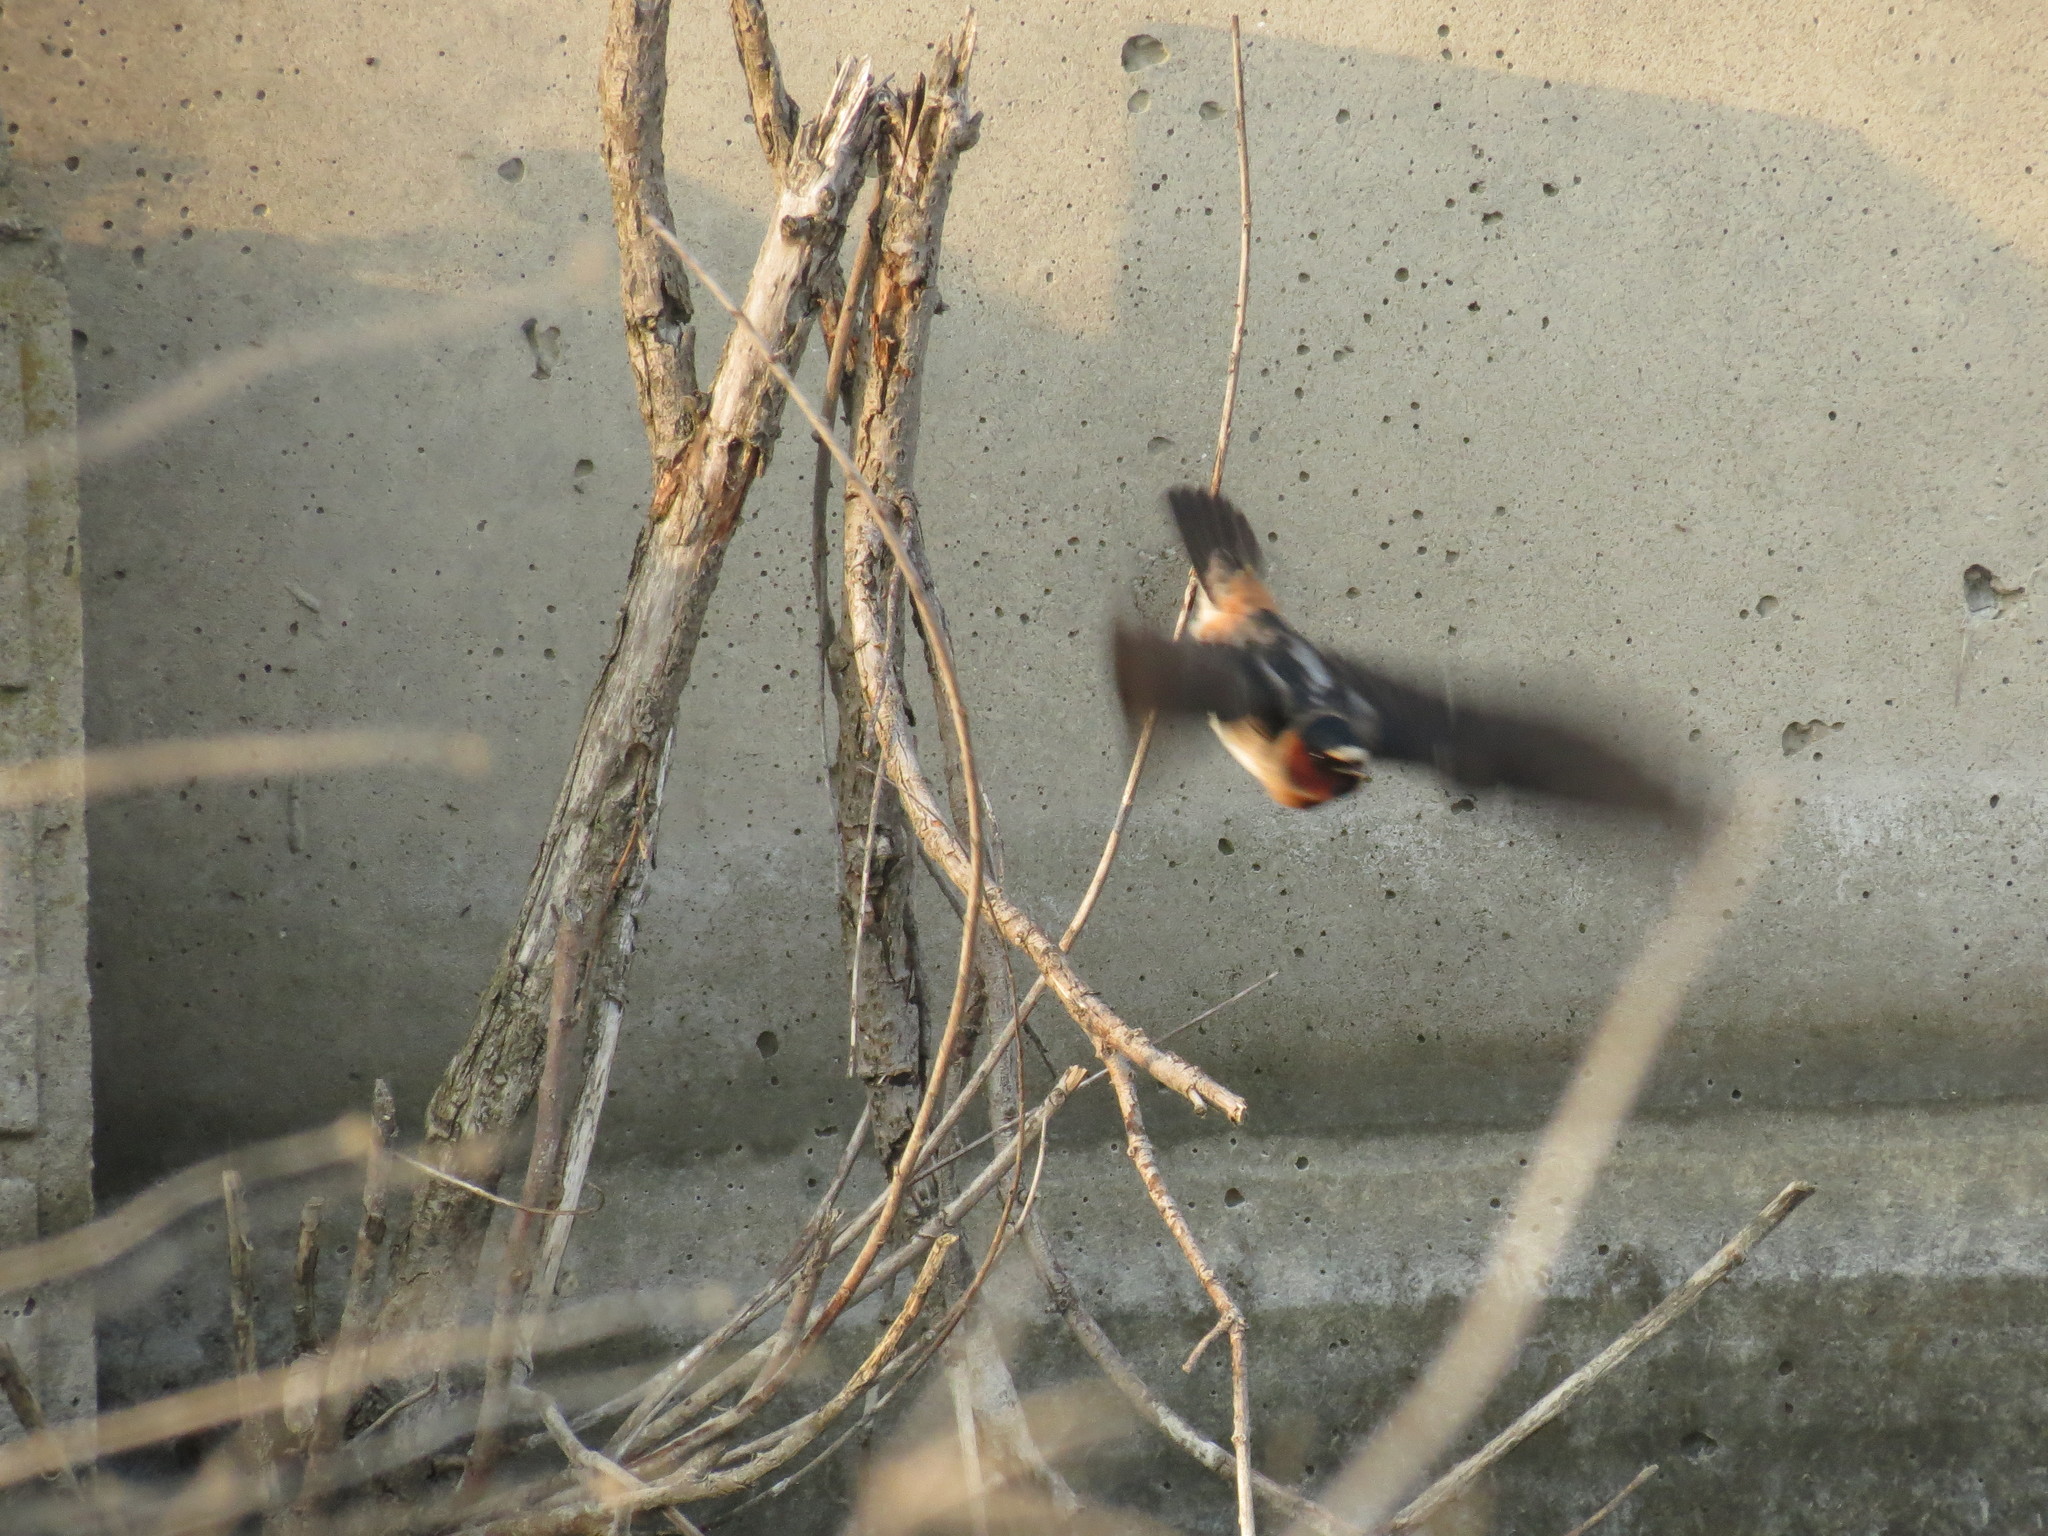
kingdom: Animalia
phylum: Chordata
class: Aves
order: Passeriformes
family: Hirundinidae
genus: Petrochelidon
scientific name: Petrochelidon pyrrhonota
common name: American cliff swallow
